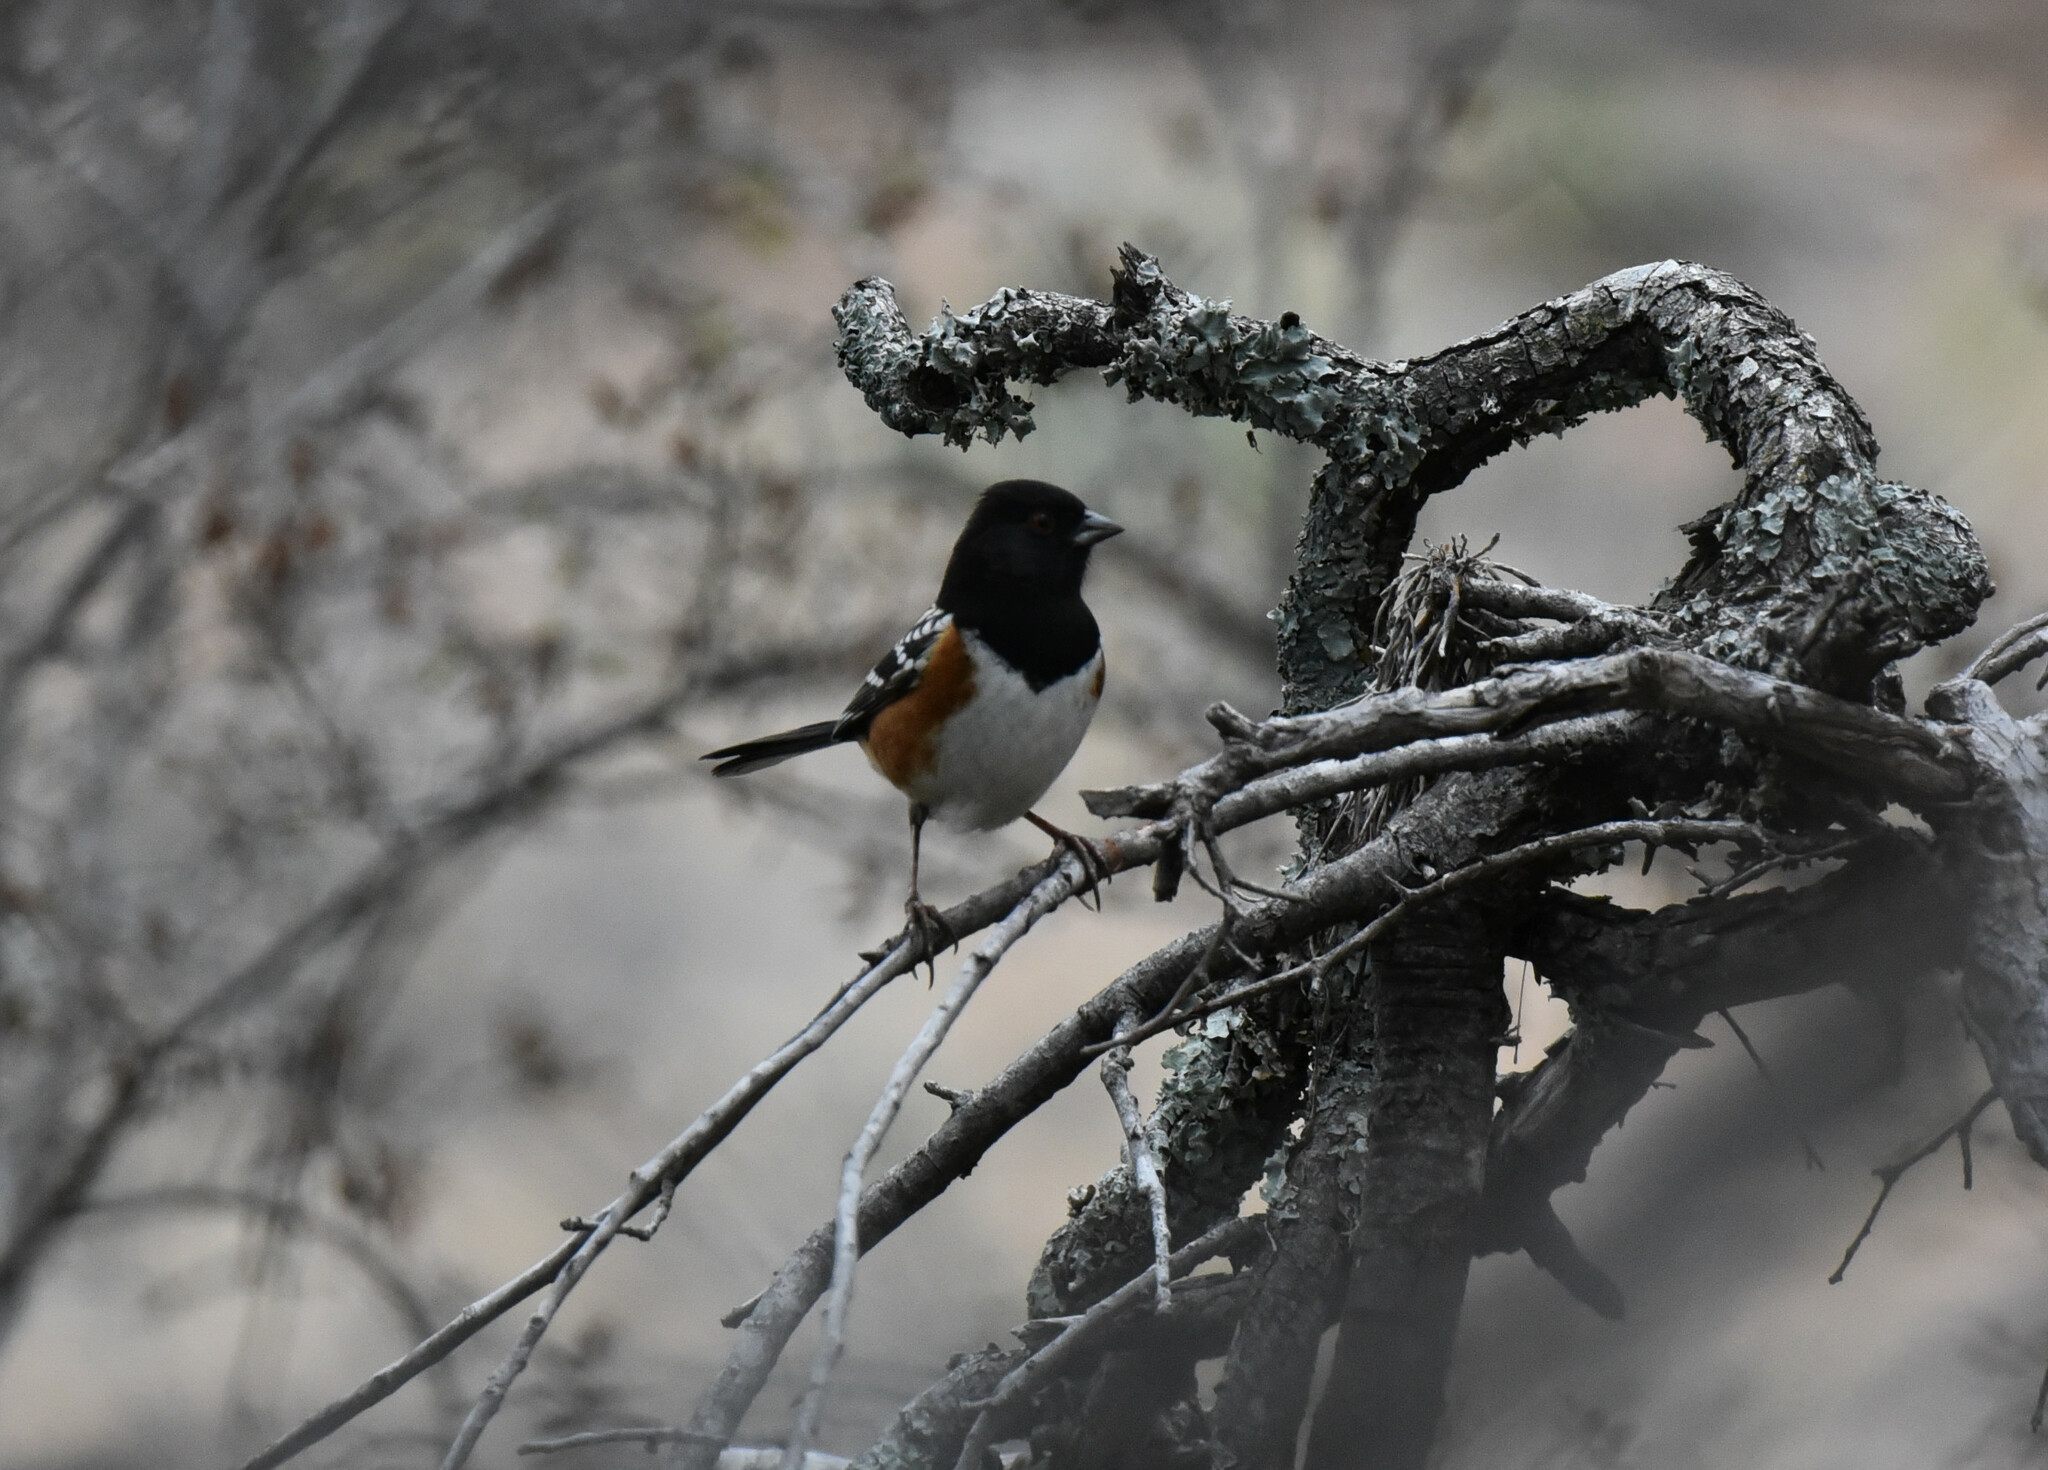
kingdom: Animalia
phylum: Chordata
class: Aves
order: Passeriformes
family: Passerellidae
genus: Pipilo
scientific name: Pipilo maculatus
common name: Spotted towhee
